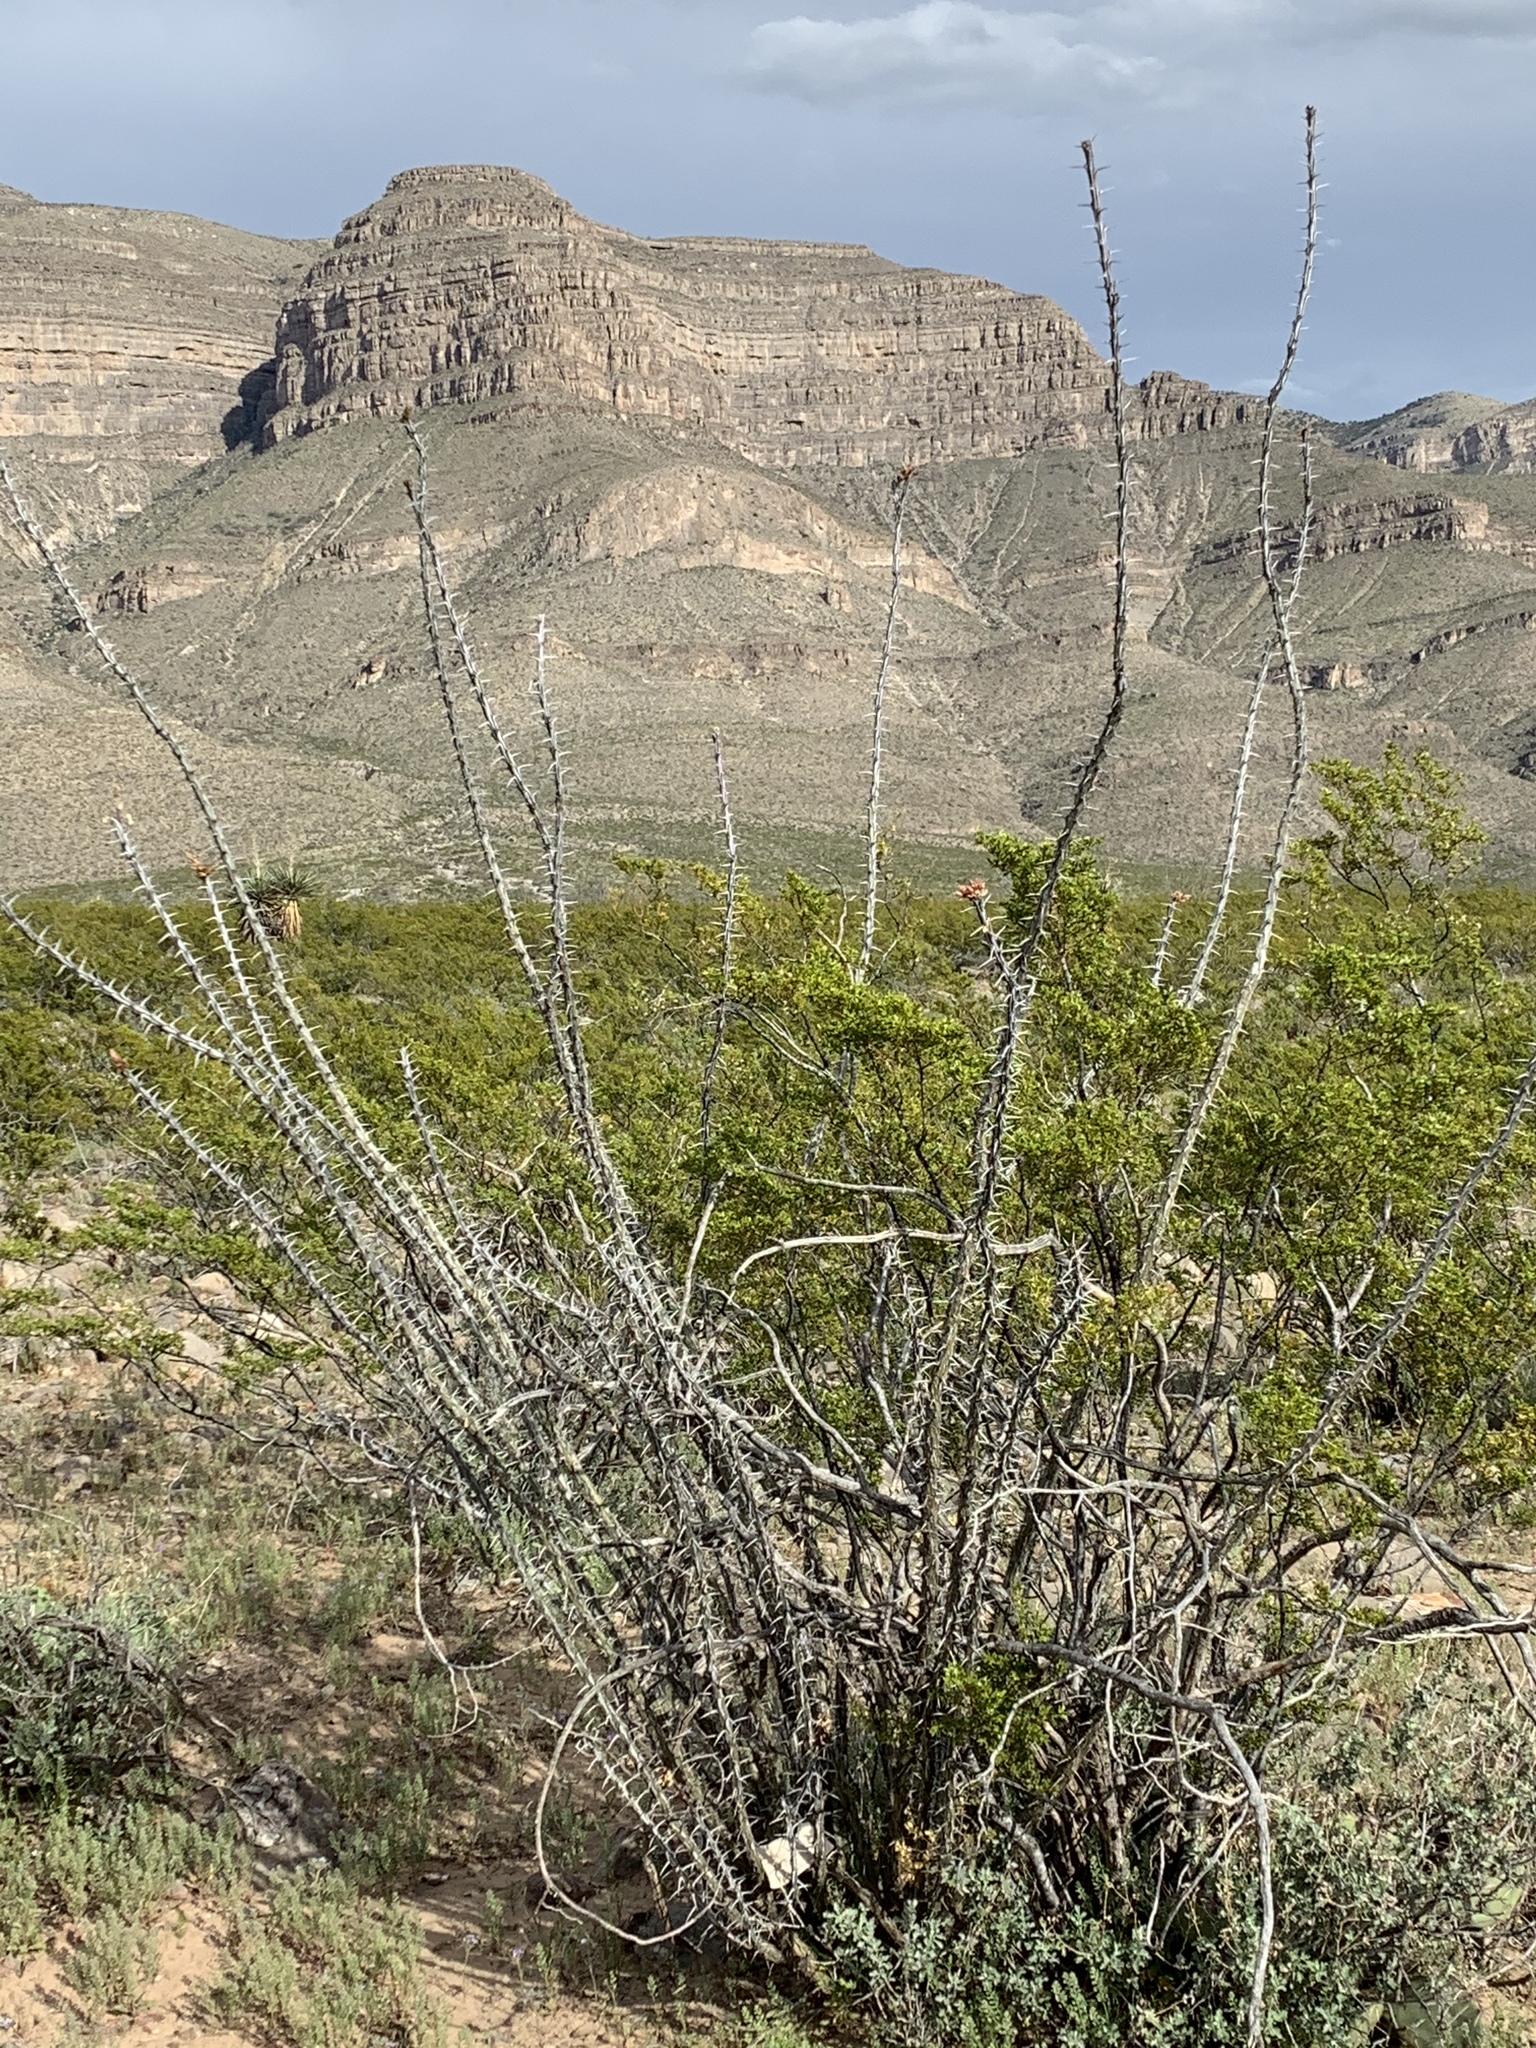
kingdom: Plantae
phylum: Tracheophyta
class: Magnoliopsida
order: Ericales
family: Fouquieriaceae
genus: Fouquieria
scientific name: Fouquieria splendens
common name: Vine-cactus
